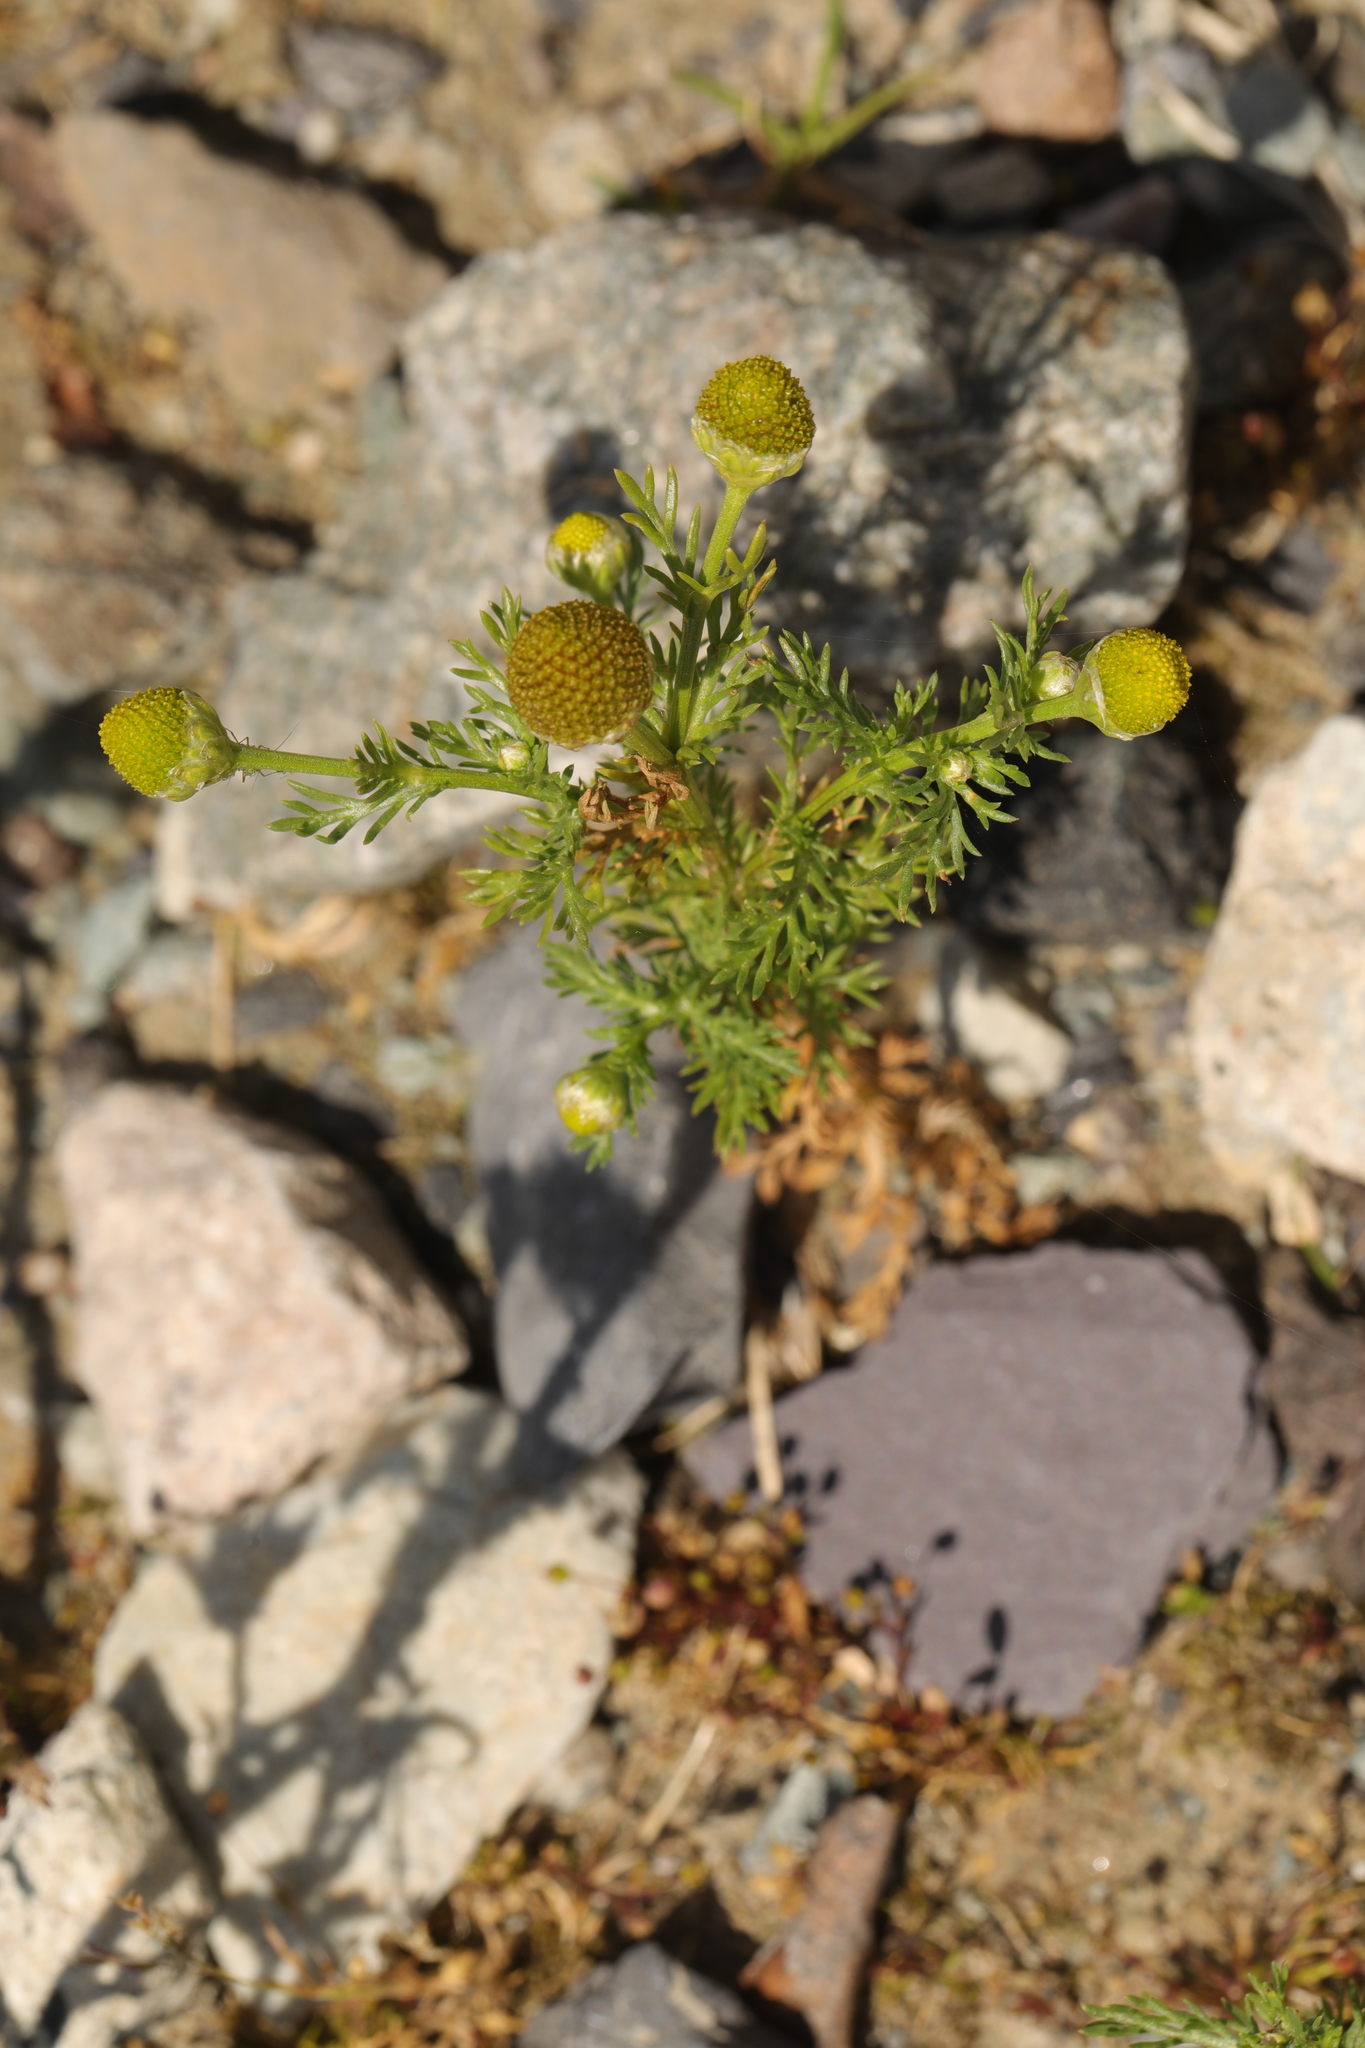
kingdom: Plantae
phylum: Tracheophyta
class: Magnoliopsida
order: Asterales
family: Asteraceae
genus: Matricaria
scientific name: Matricaria discoidea
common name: Disc mayweed
